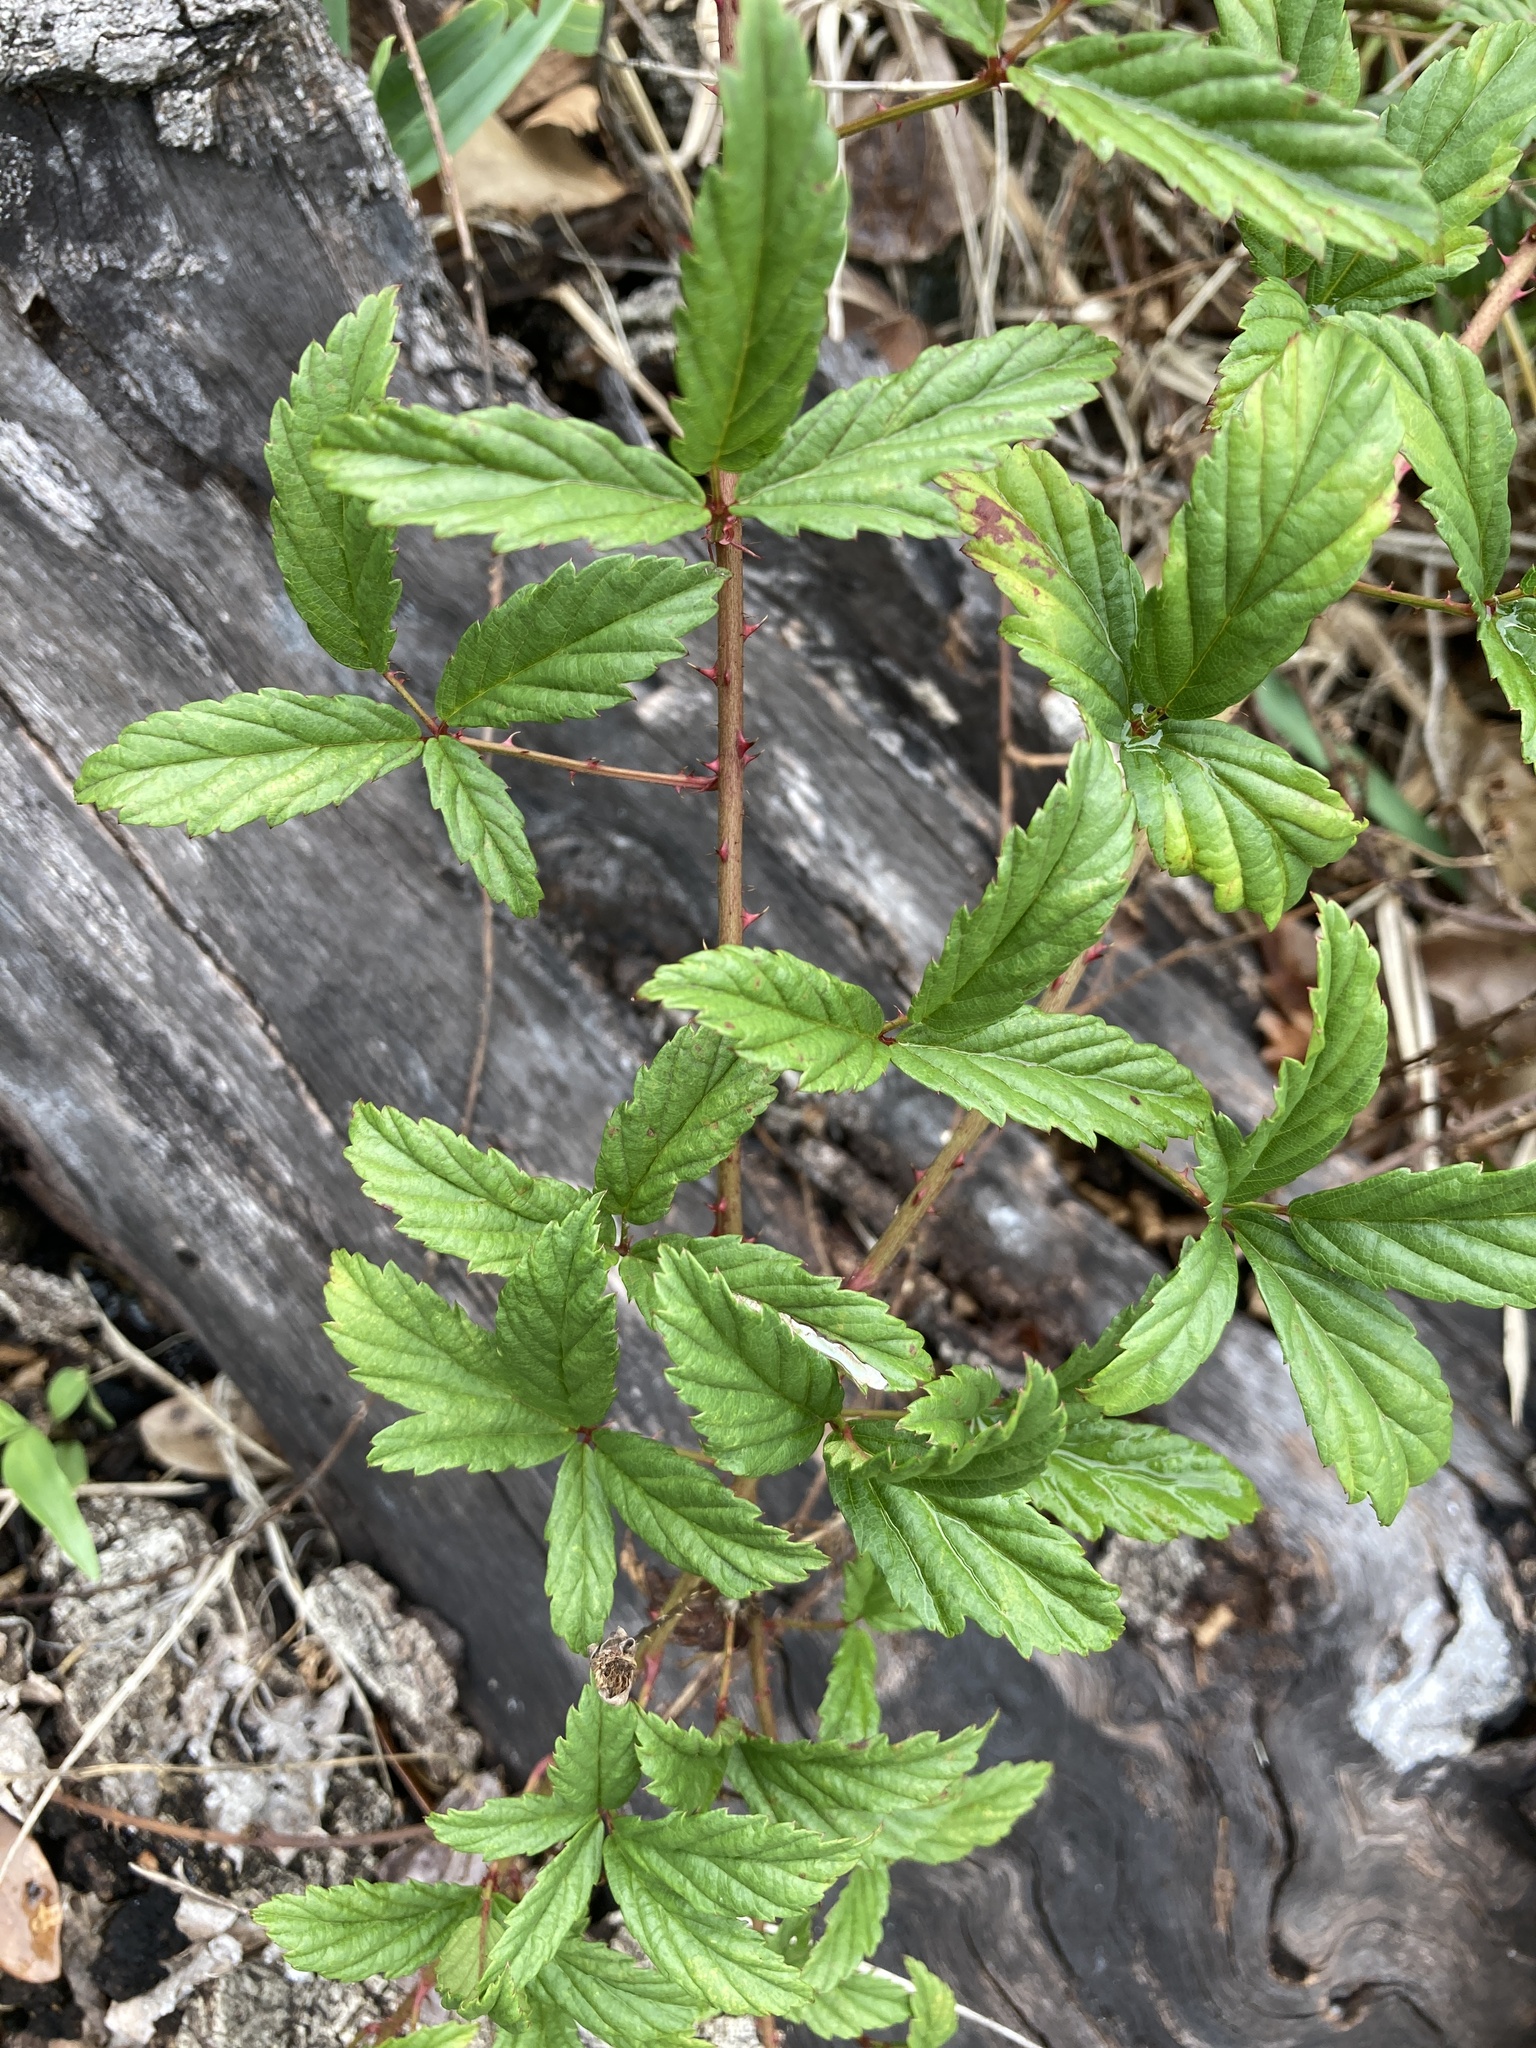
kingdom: Plantae
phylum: Tracheophyta
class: Magnoliopsida
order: Rosales
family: Rosaceae
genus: Rubus
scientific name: Rubus trivialis
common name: Southern dewberry
